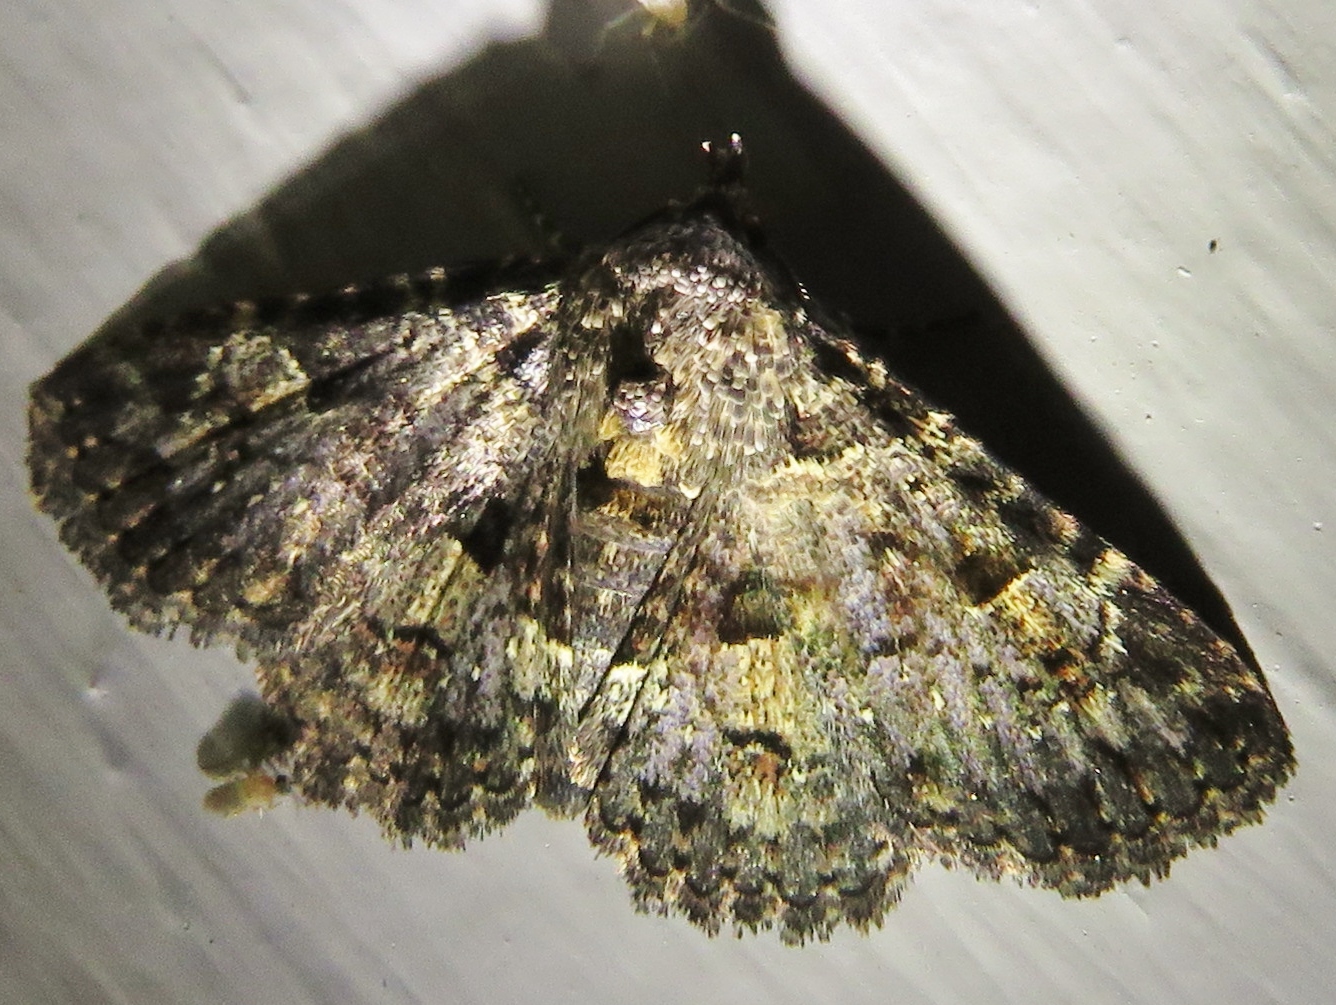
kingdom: Animalia
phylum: Arthropoda
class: Insecta
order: Lepidoptera
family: Erebidae
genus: Metalectra
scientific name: Metalectra discalis
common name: Common fungus moth
